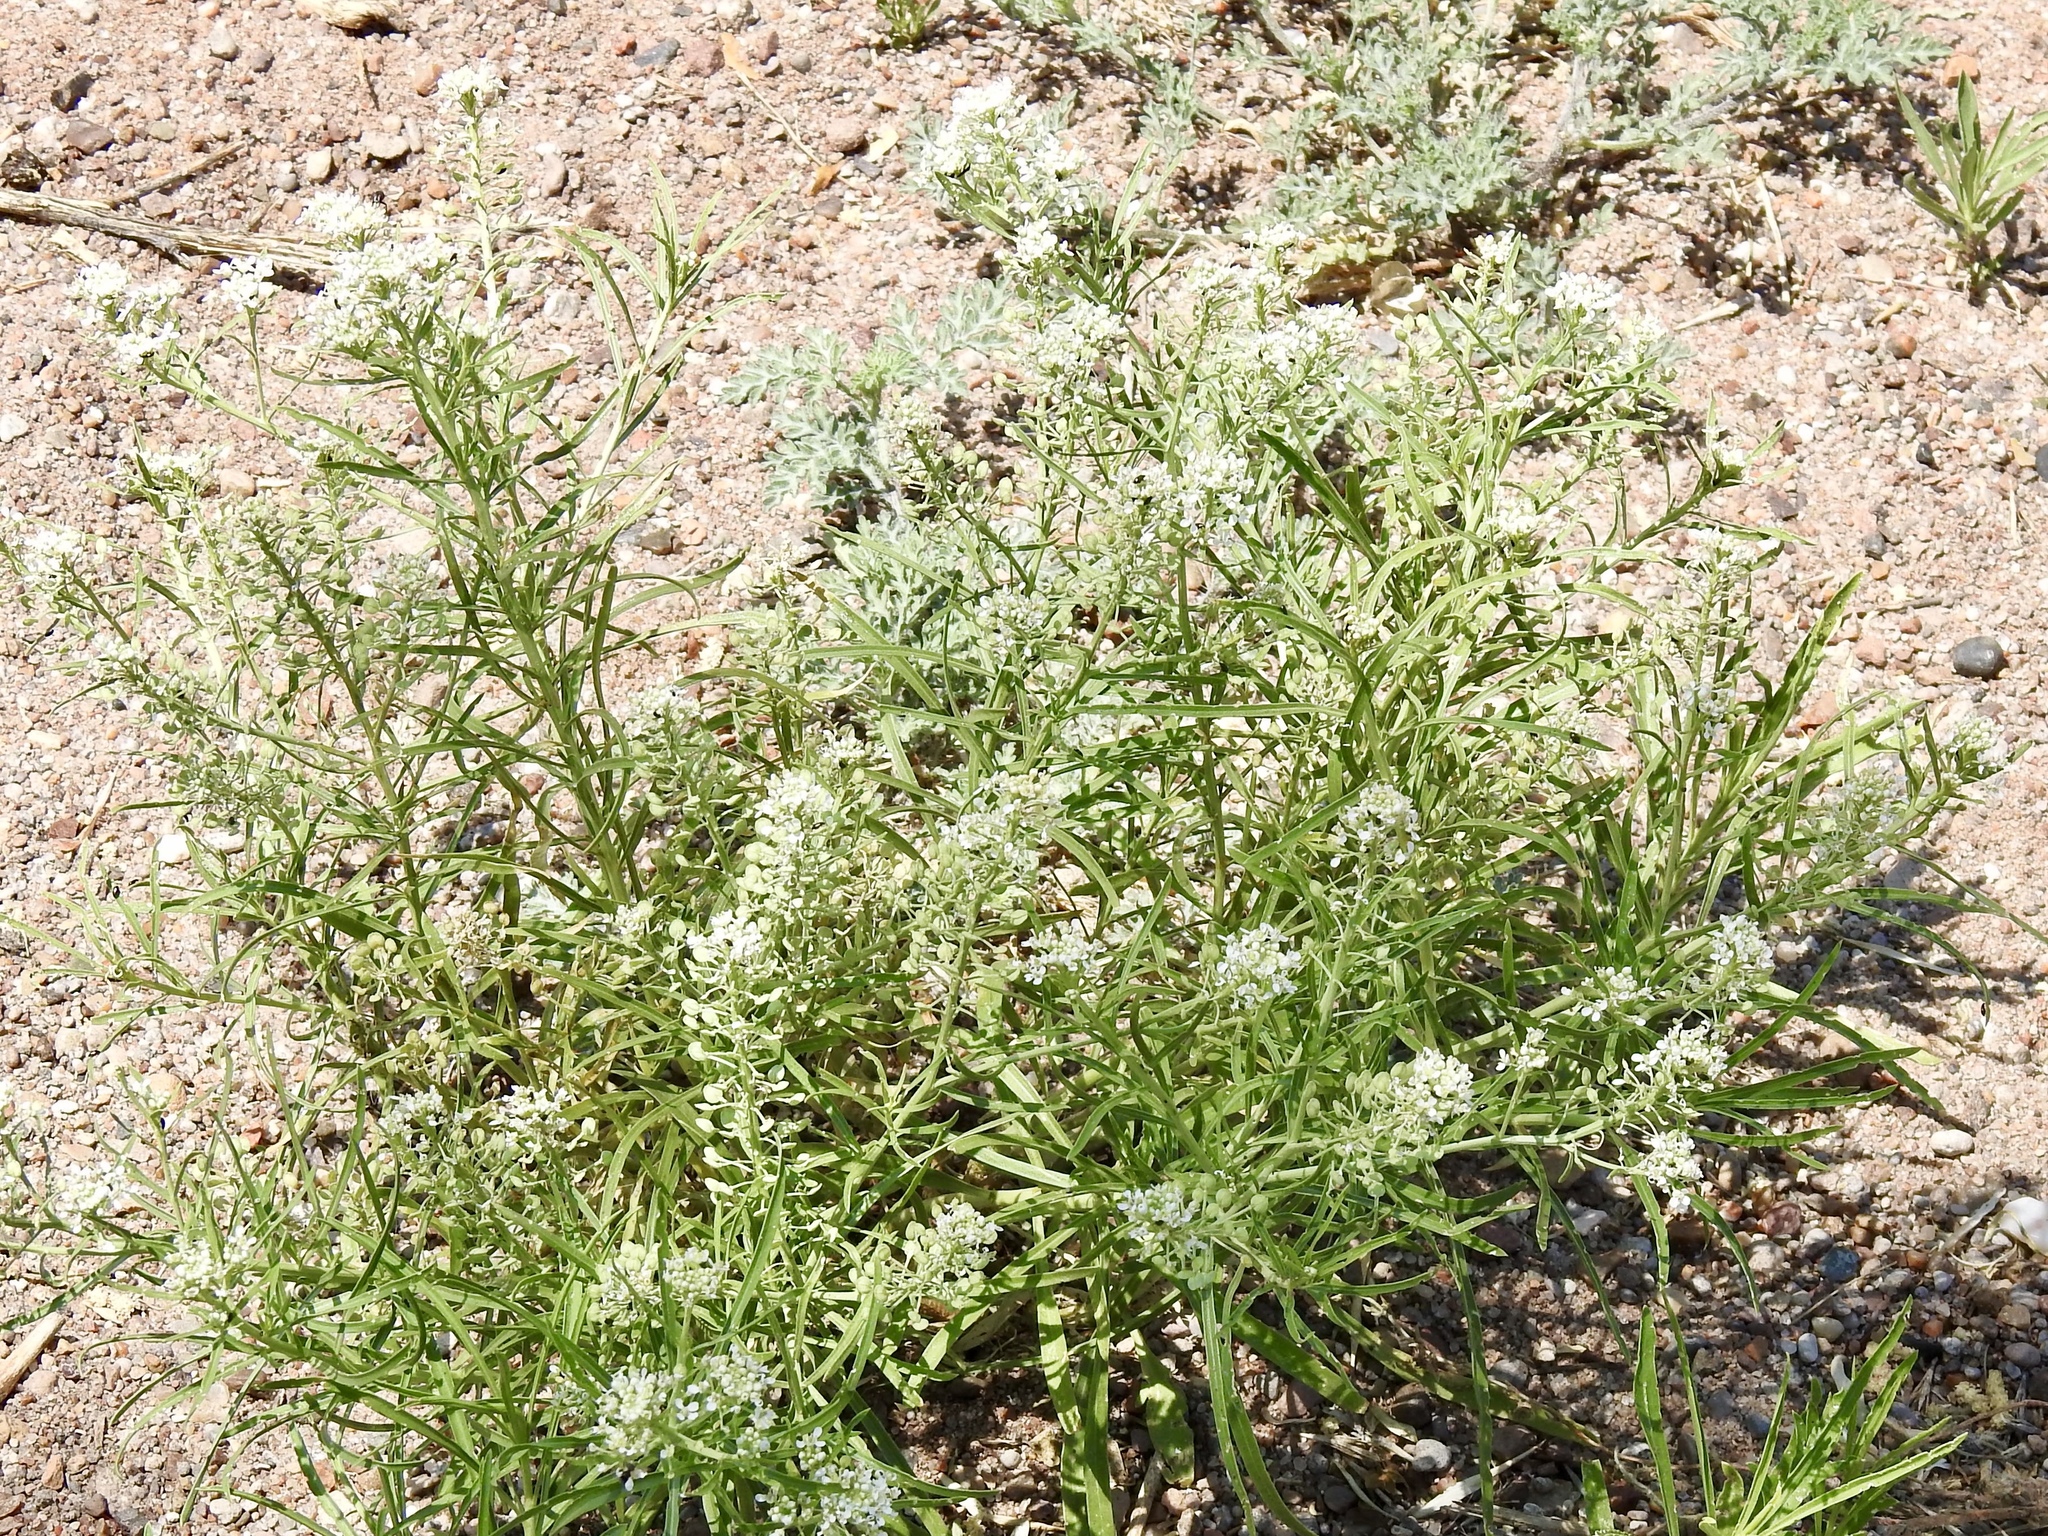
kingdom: Plantae
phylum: Tracheophyta
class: Magnoliopsida
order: Brassicales
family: Brassicaceae
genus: Lepidium
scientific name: Lepidium alyssoides
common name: Mesa pepperweed
